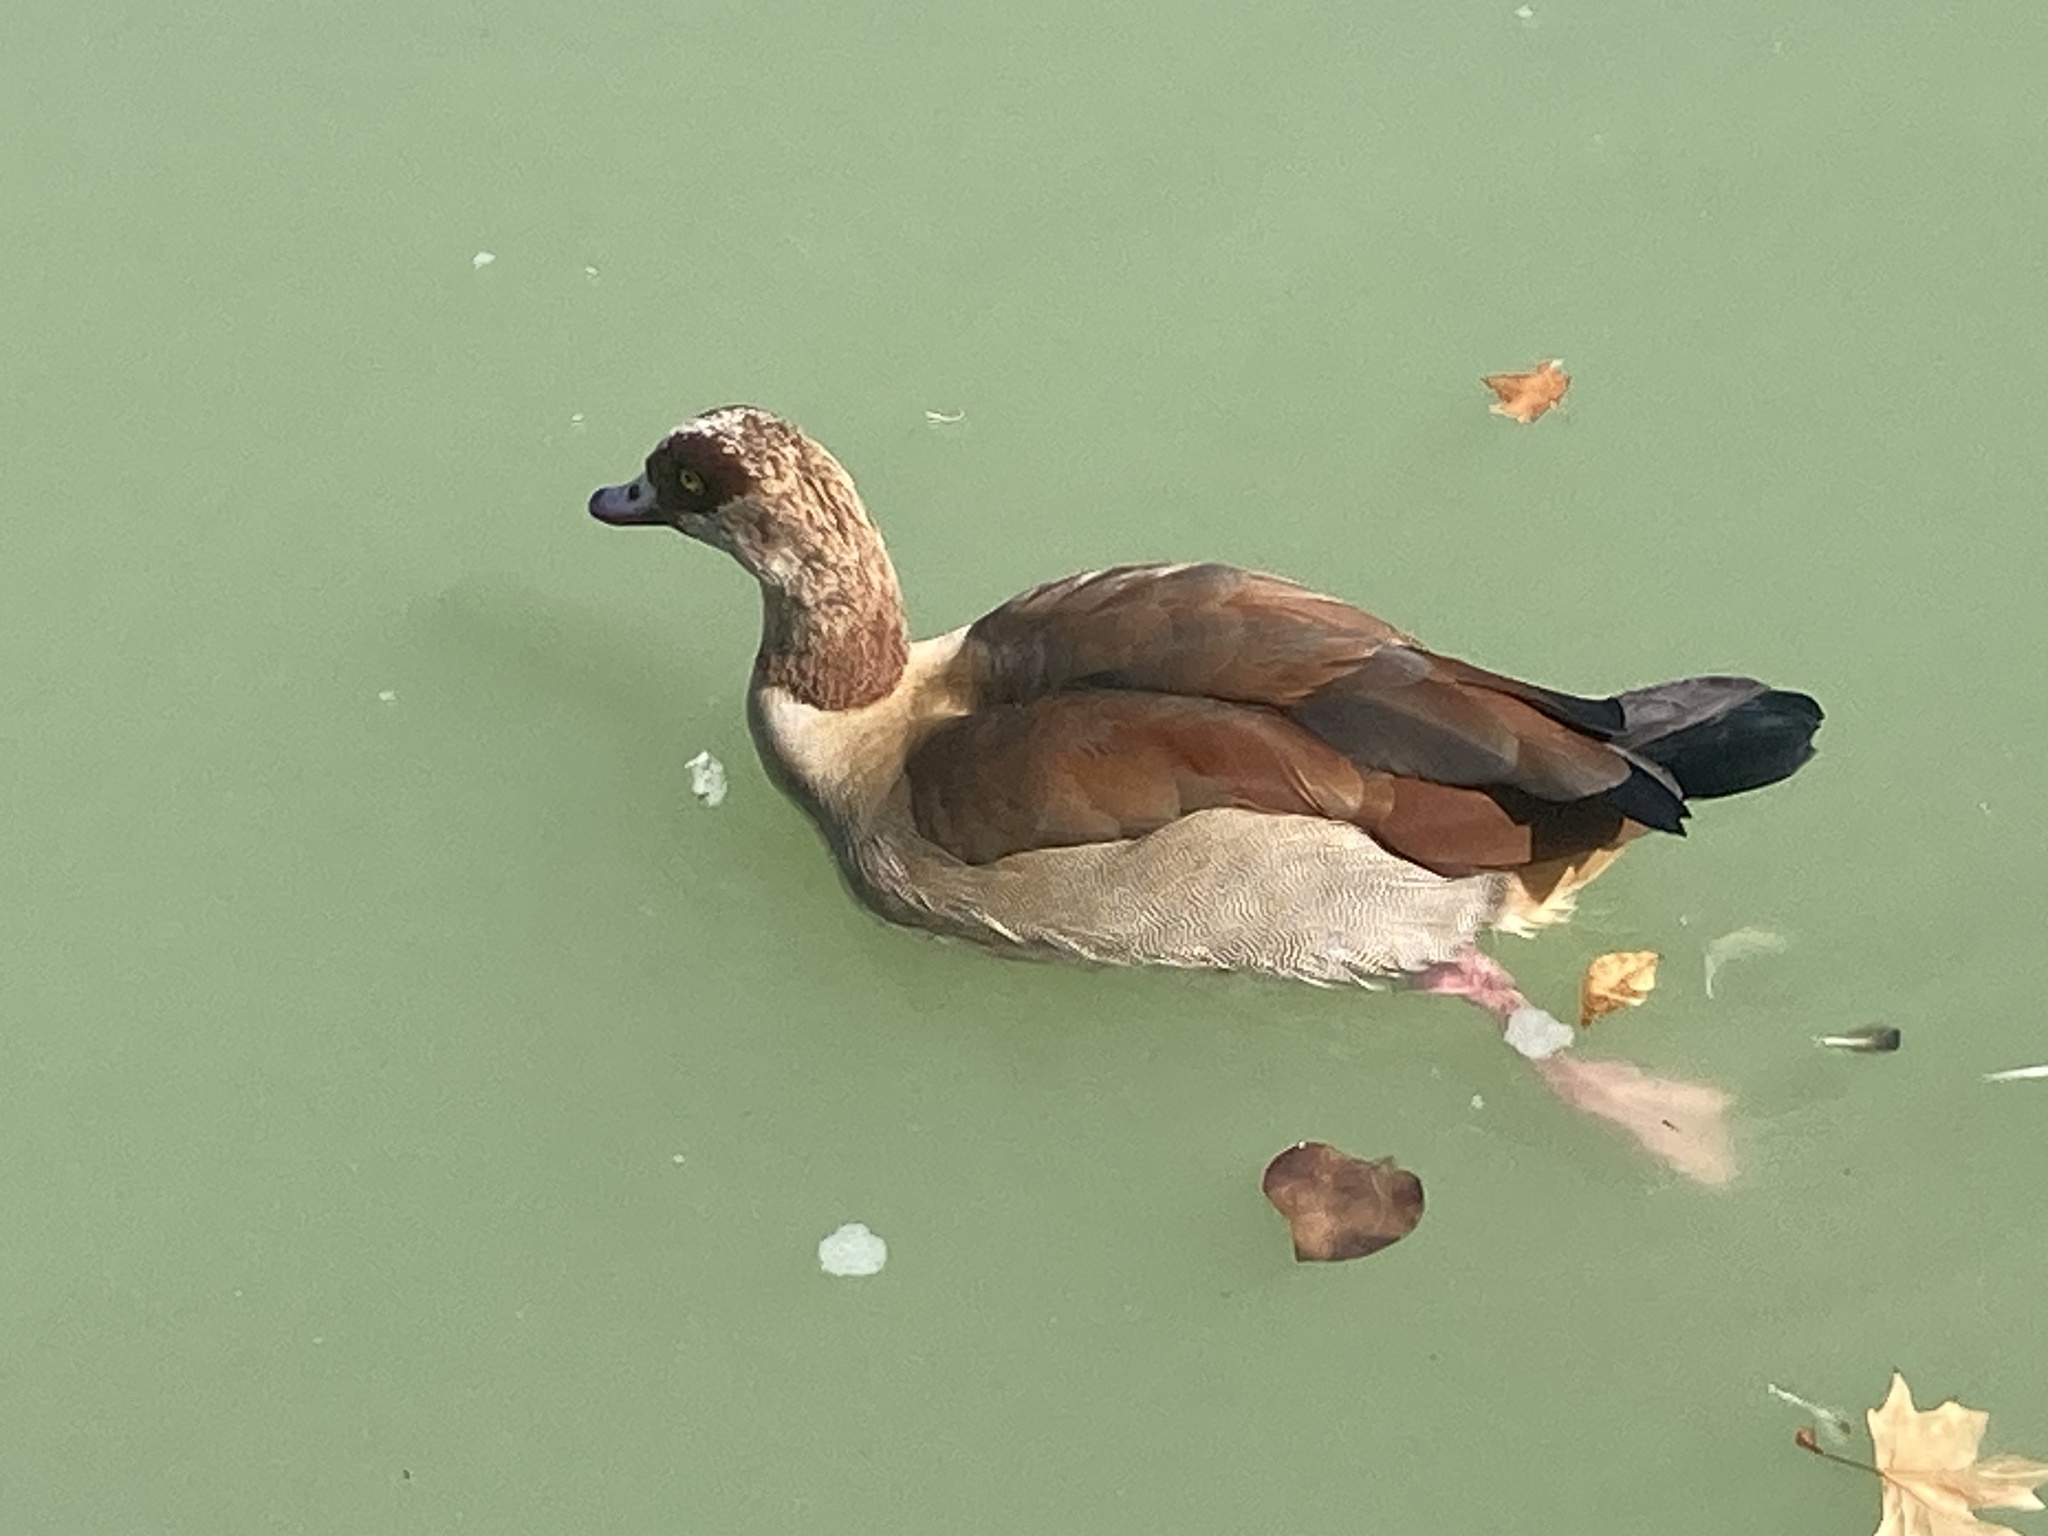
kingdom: Animalia
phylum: Chordata
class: Aves
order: Anseriformes
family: Anatidae
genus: Alopochen
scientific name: Alopochen aegyptiaca
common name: Egyptian goose
